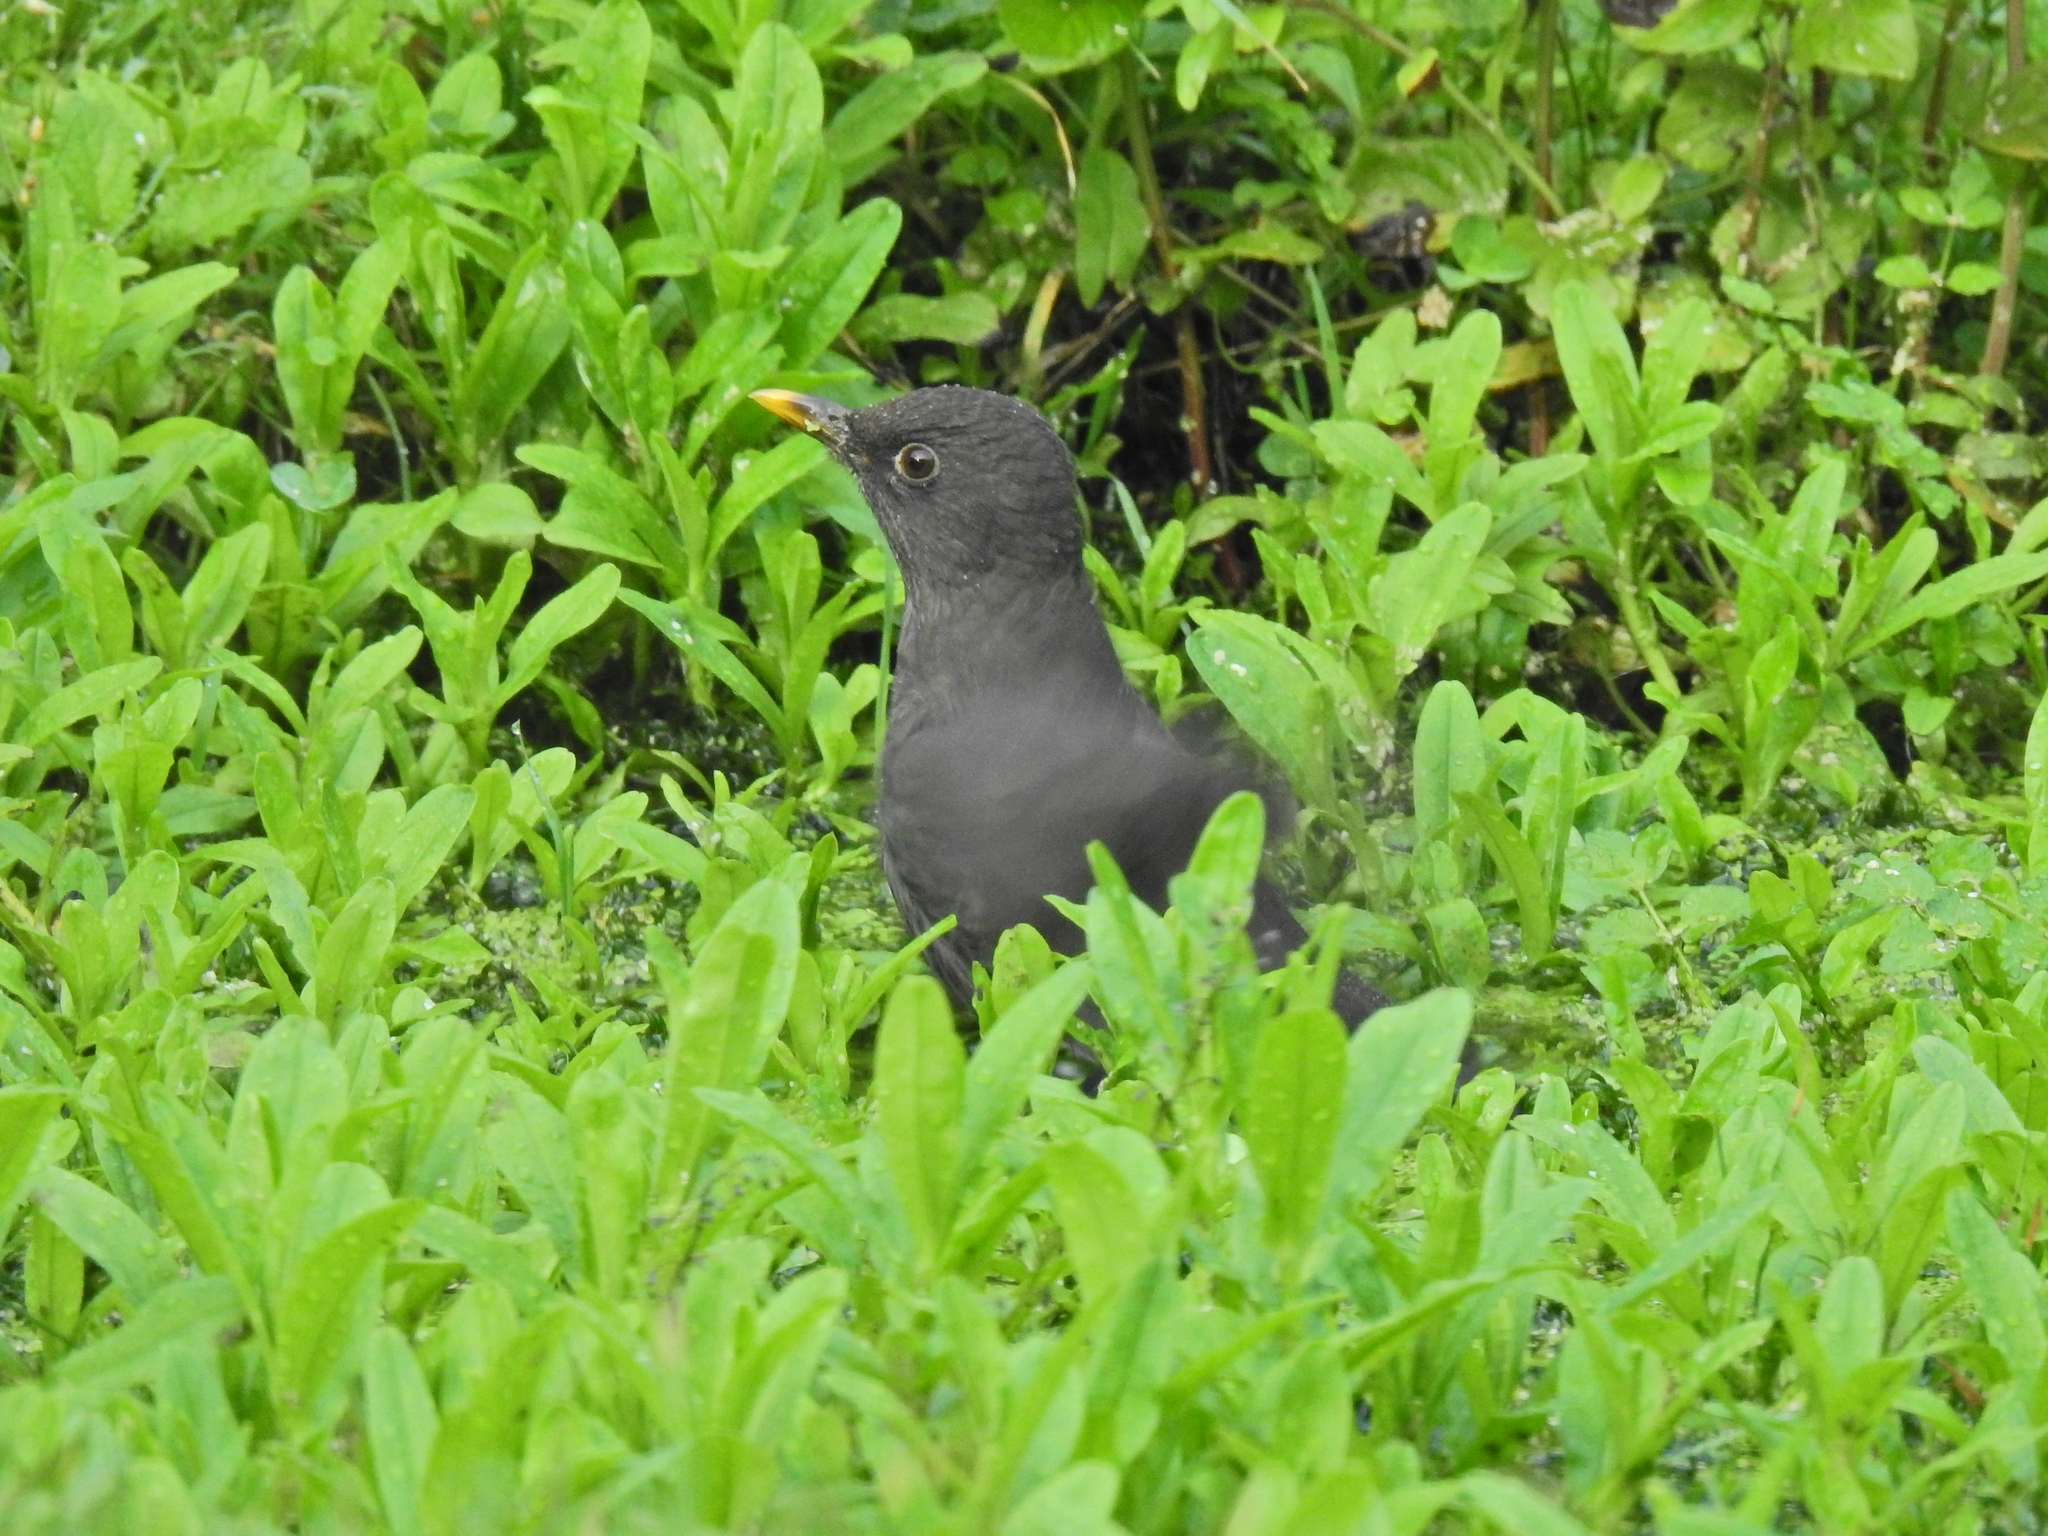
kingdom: Animalia
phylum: Chordata
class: Aves
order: Passeriformes
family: Turdidae
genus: Turdus
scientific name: Turdus merula
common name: Common blackbird
